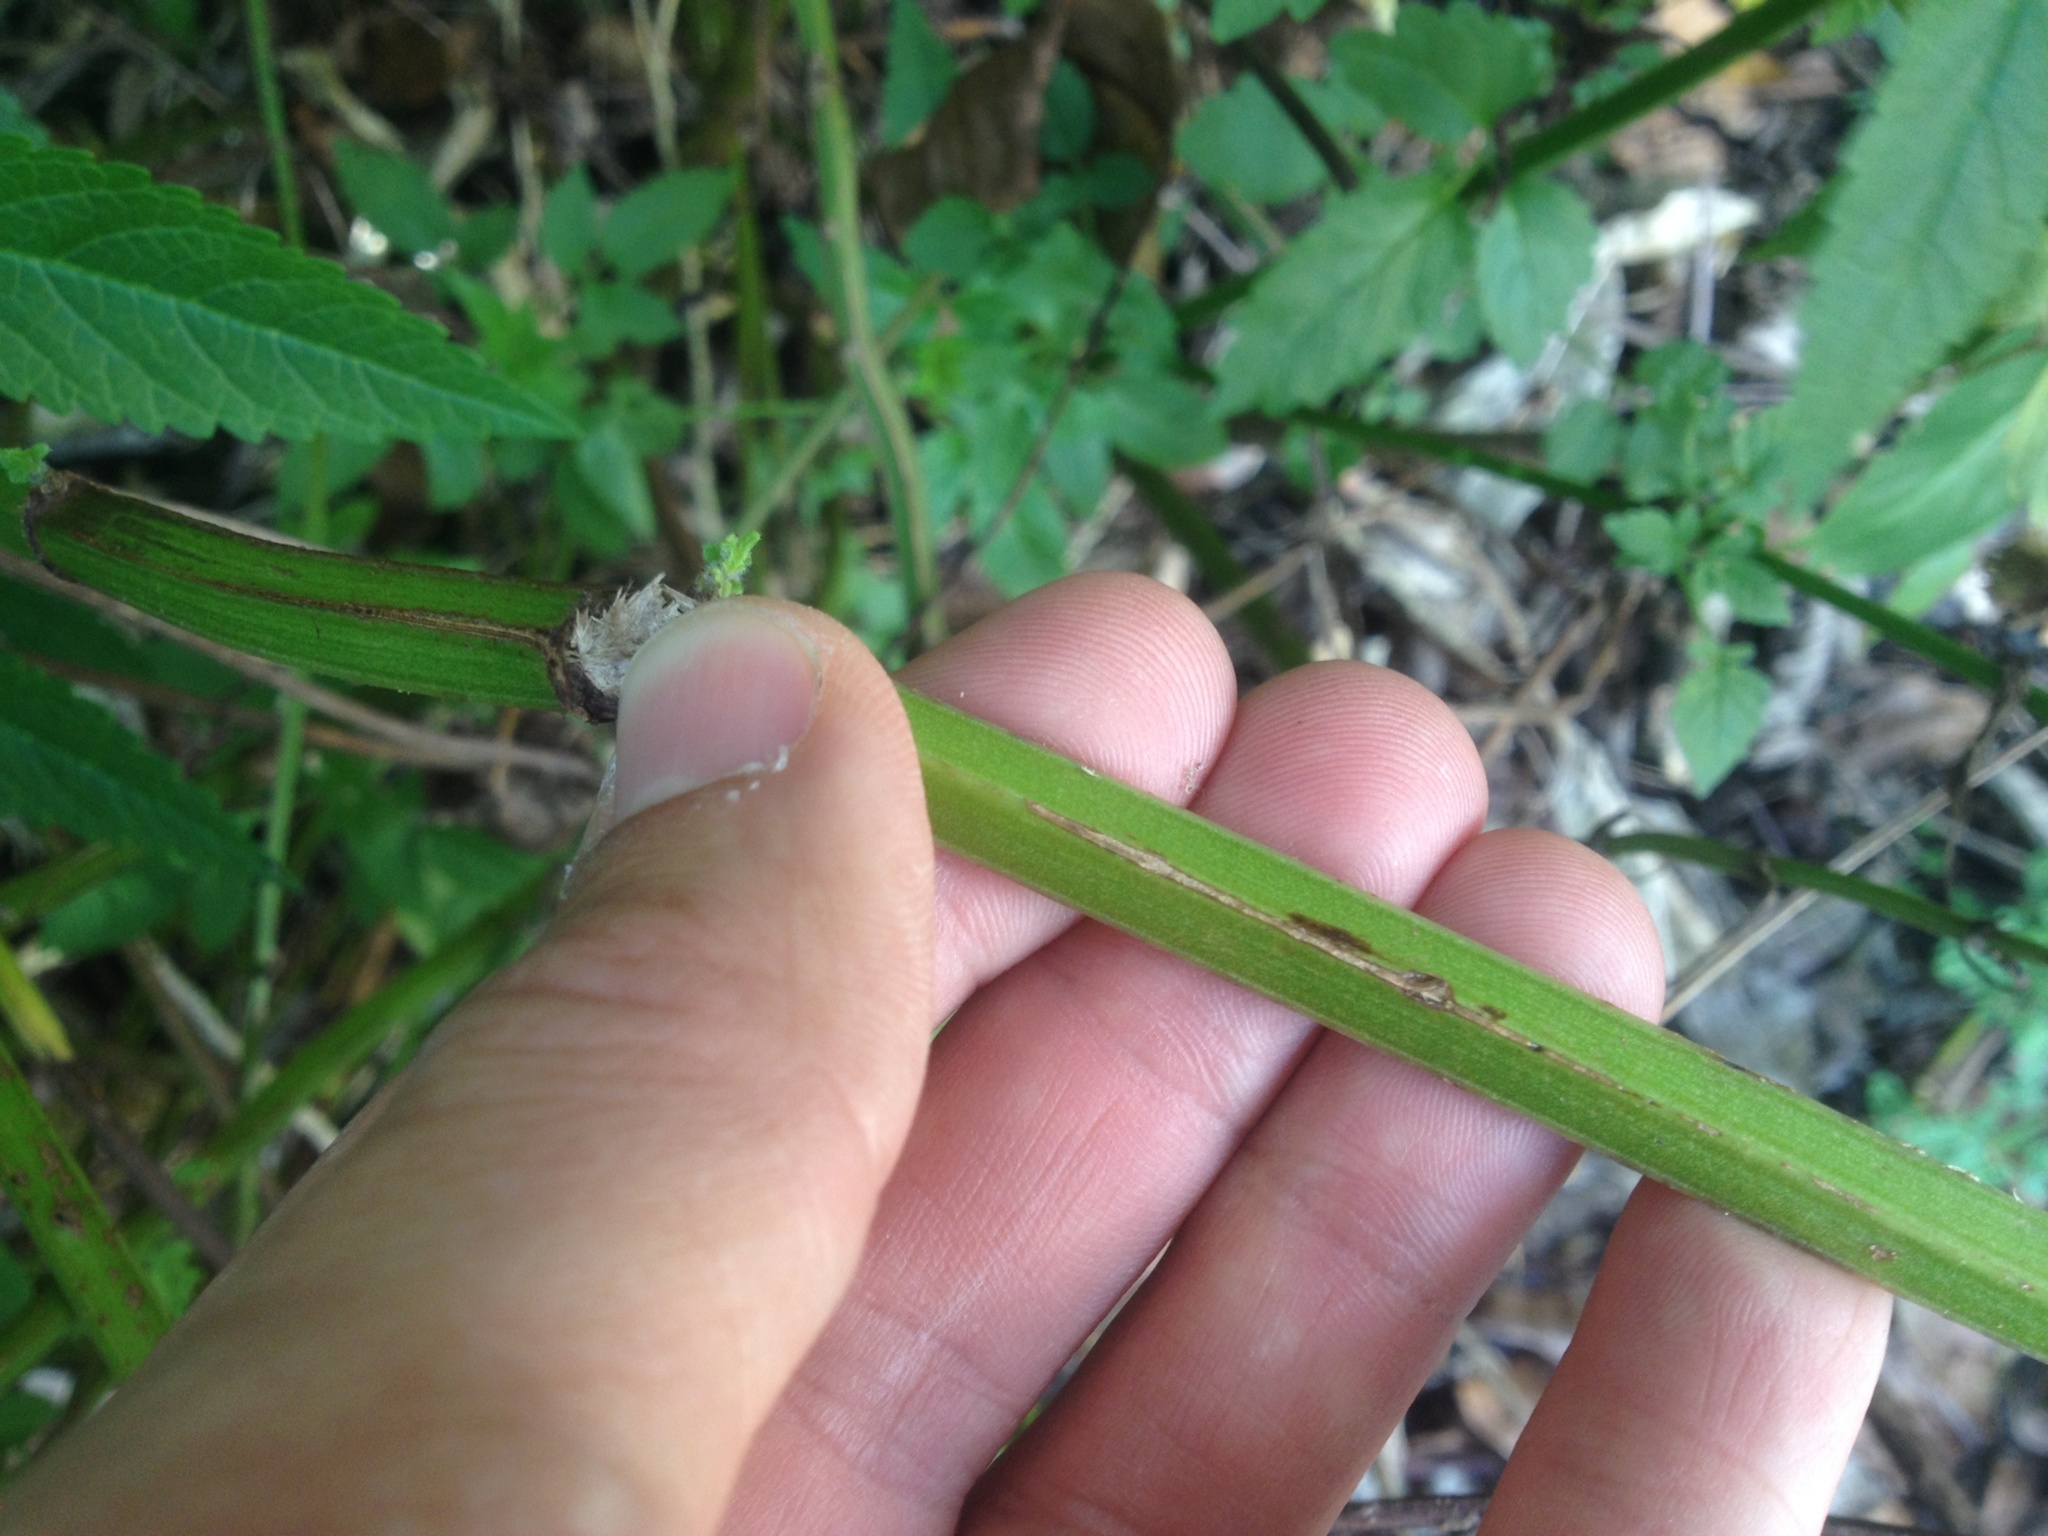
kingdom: Plantae
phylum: Tracheophyta
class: Magnoliopsida
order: Lamiales
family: Lamiaceae
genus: Cedronella
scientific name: Cedronella canariensis
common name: Canary islands balm
